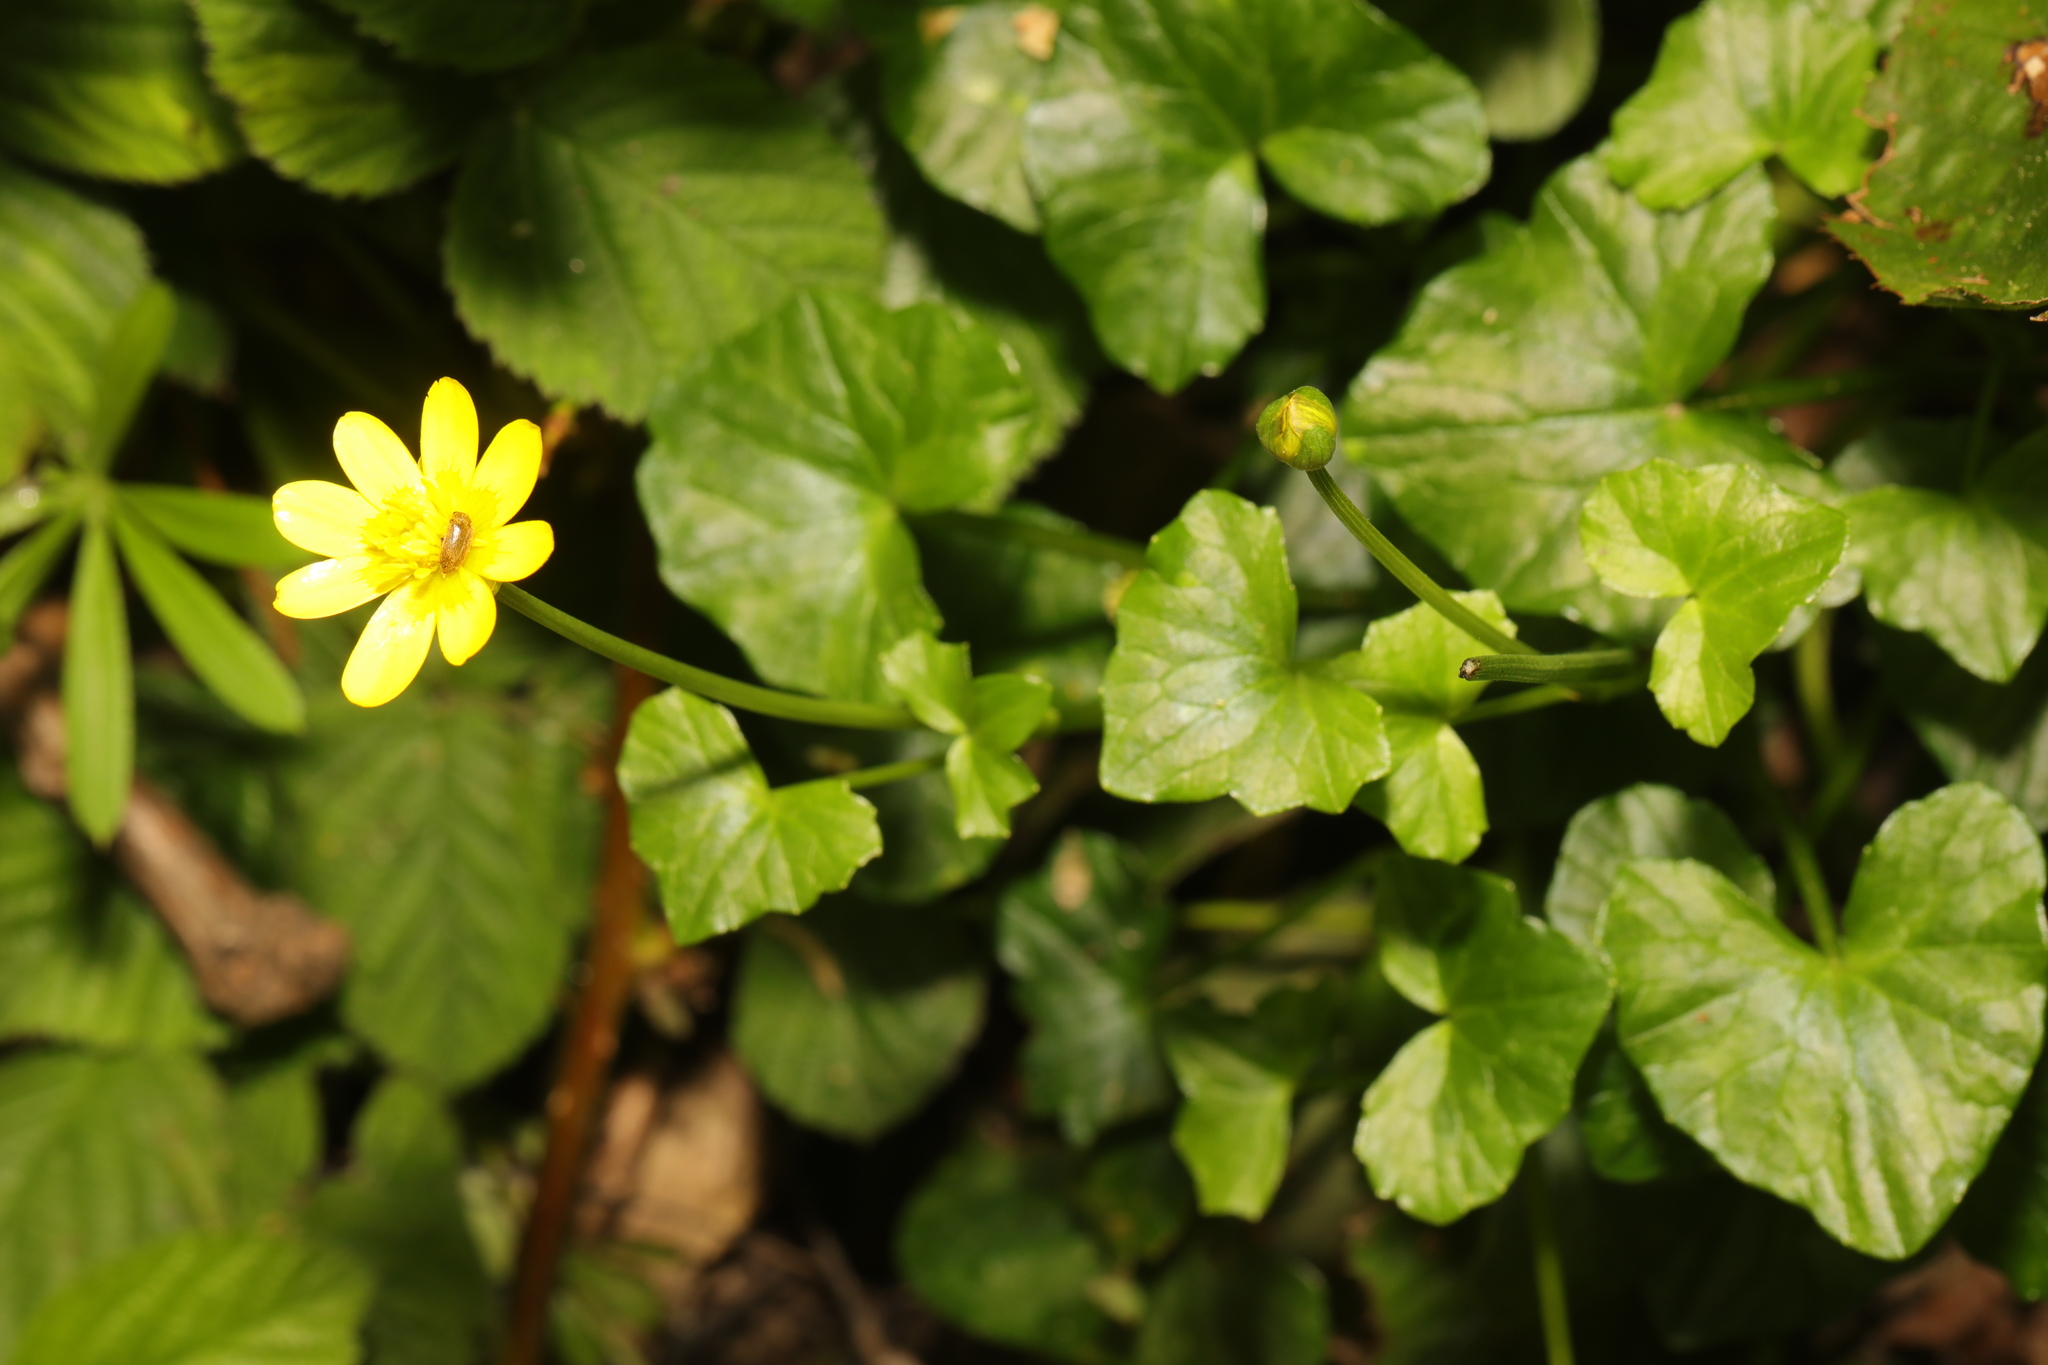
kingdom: Plantae
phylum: Tracheophyta
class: Magnoliopsida
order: Ranunculales
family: Ranunculaceae
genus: Ficaria
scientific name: Ficaria verna
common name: Lesser celandine
